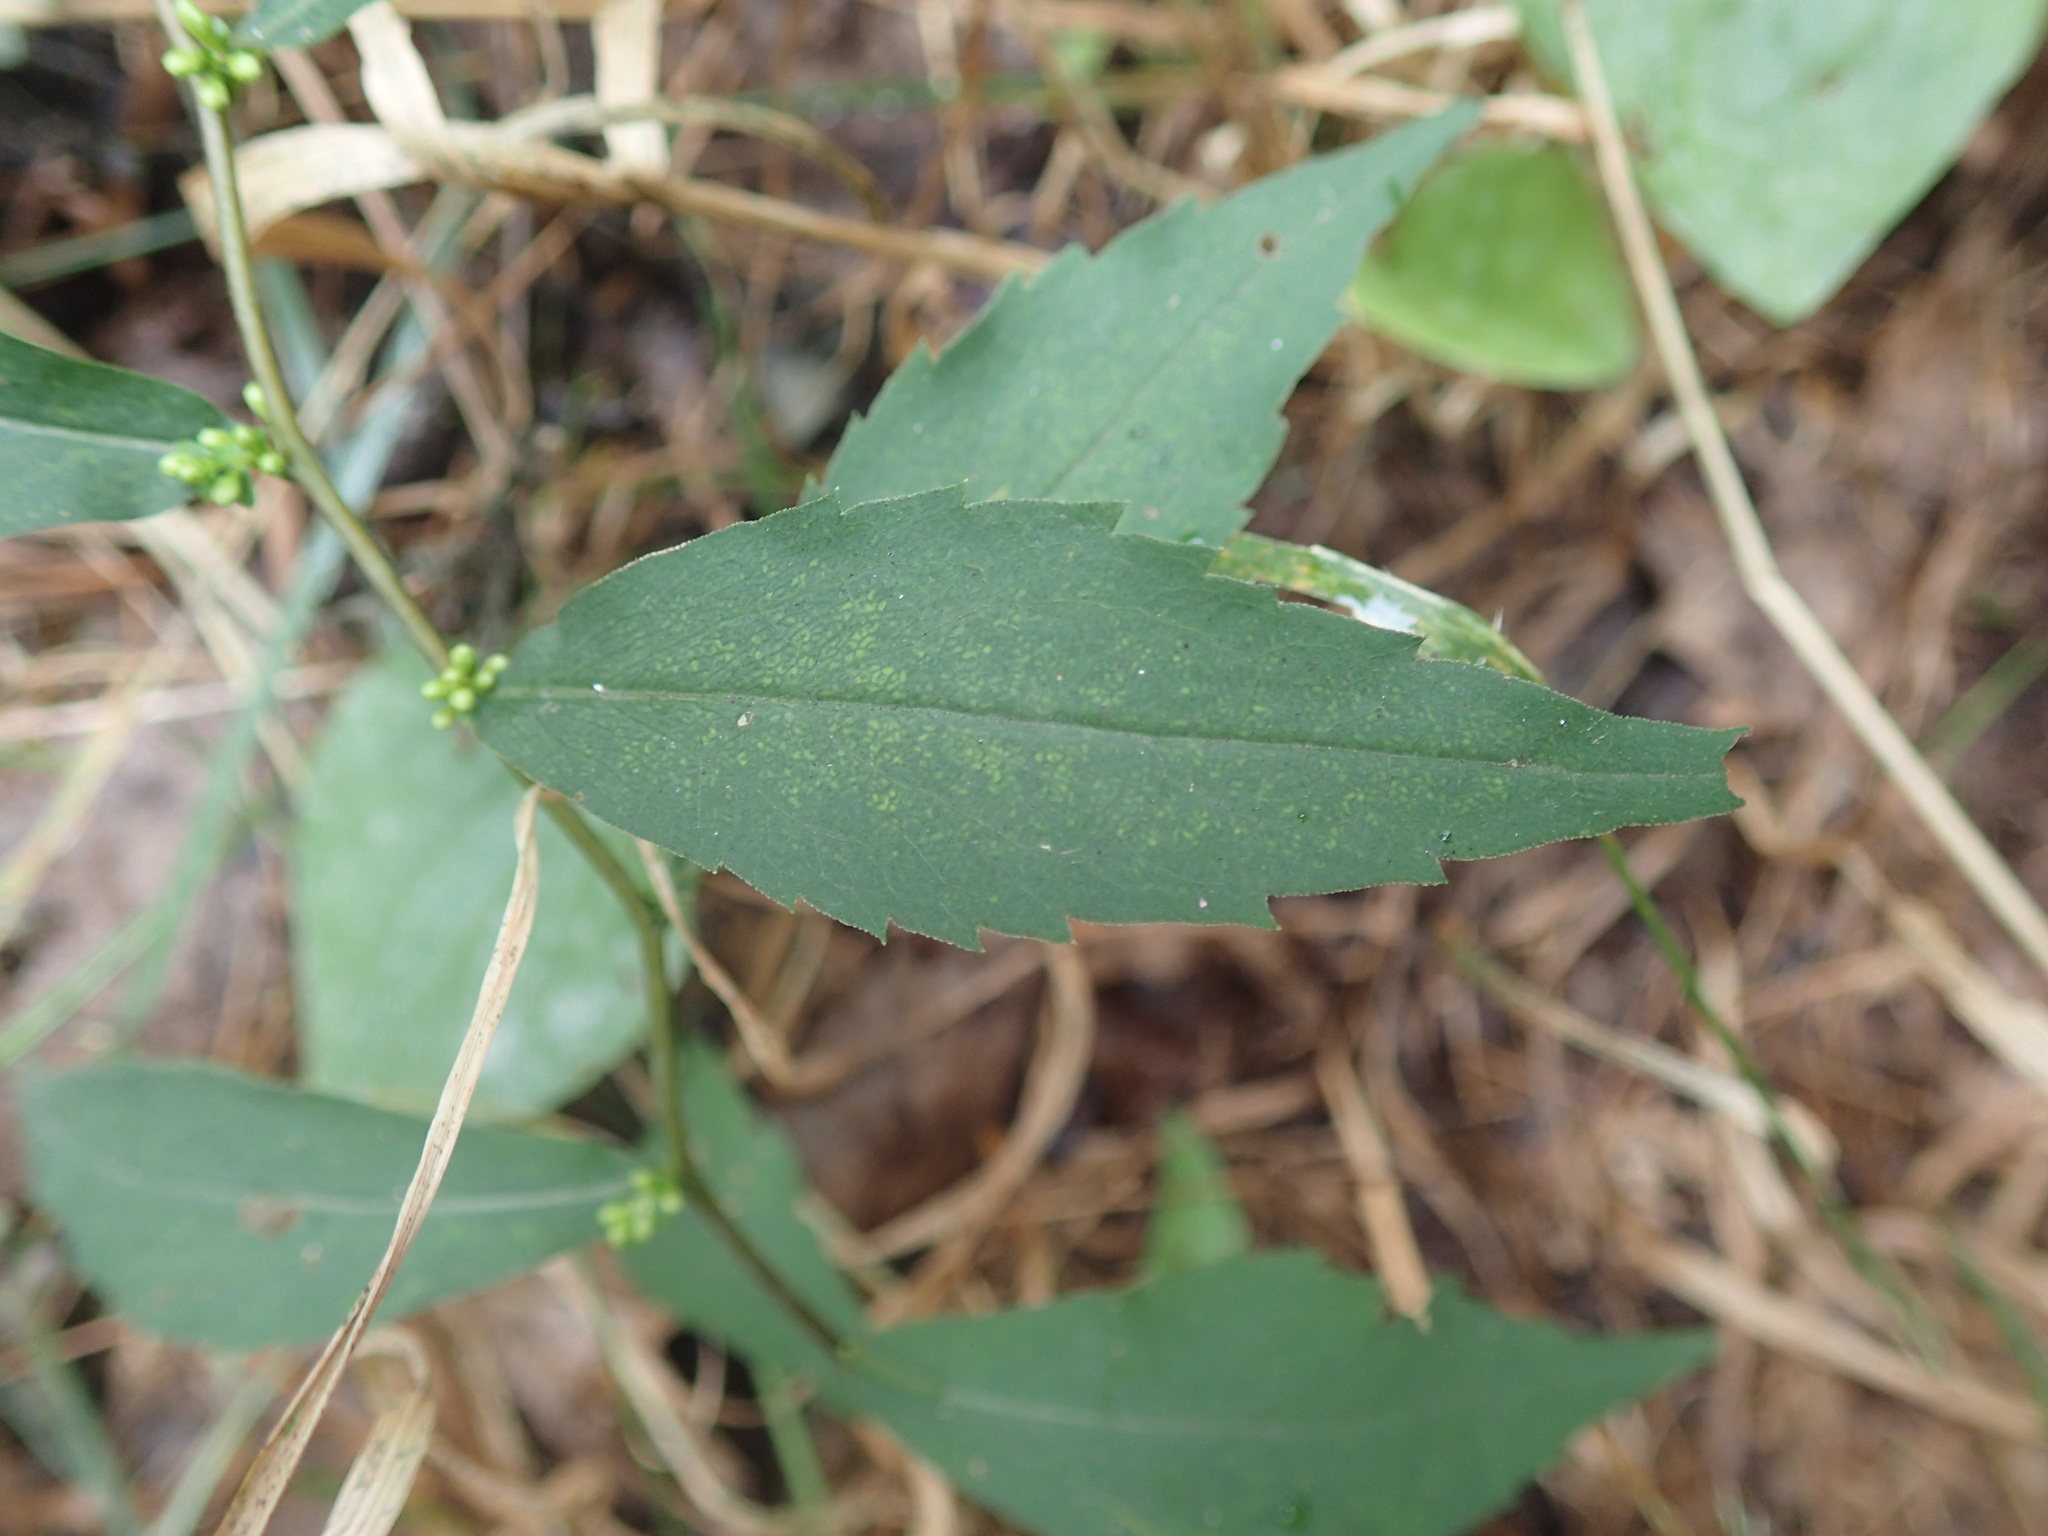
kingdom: Plantae
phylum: Tracheophyta
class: Magnoliopsida
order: Asterales
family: Asteraceae
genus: Solidago
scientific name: Solidago caesia
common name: Woodland goldenrod
